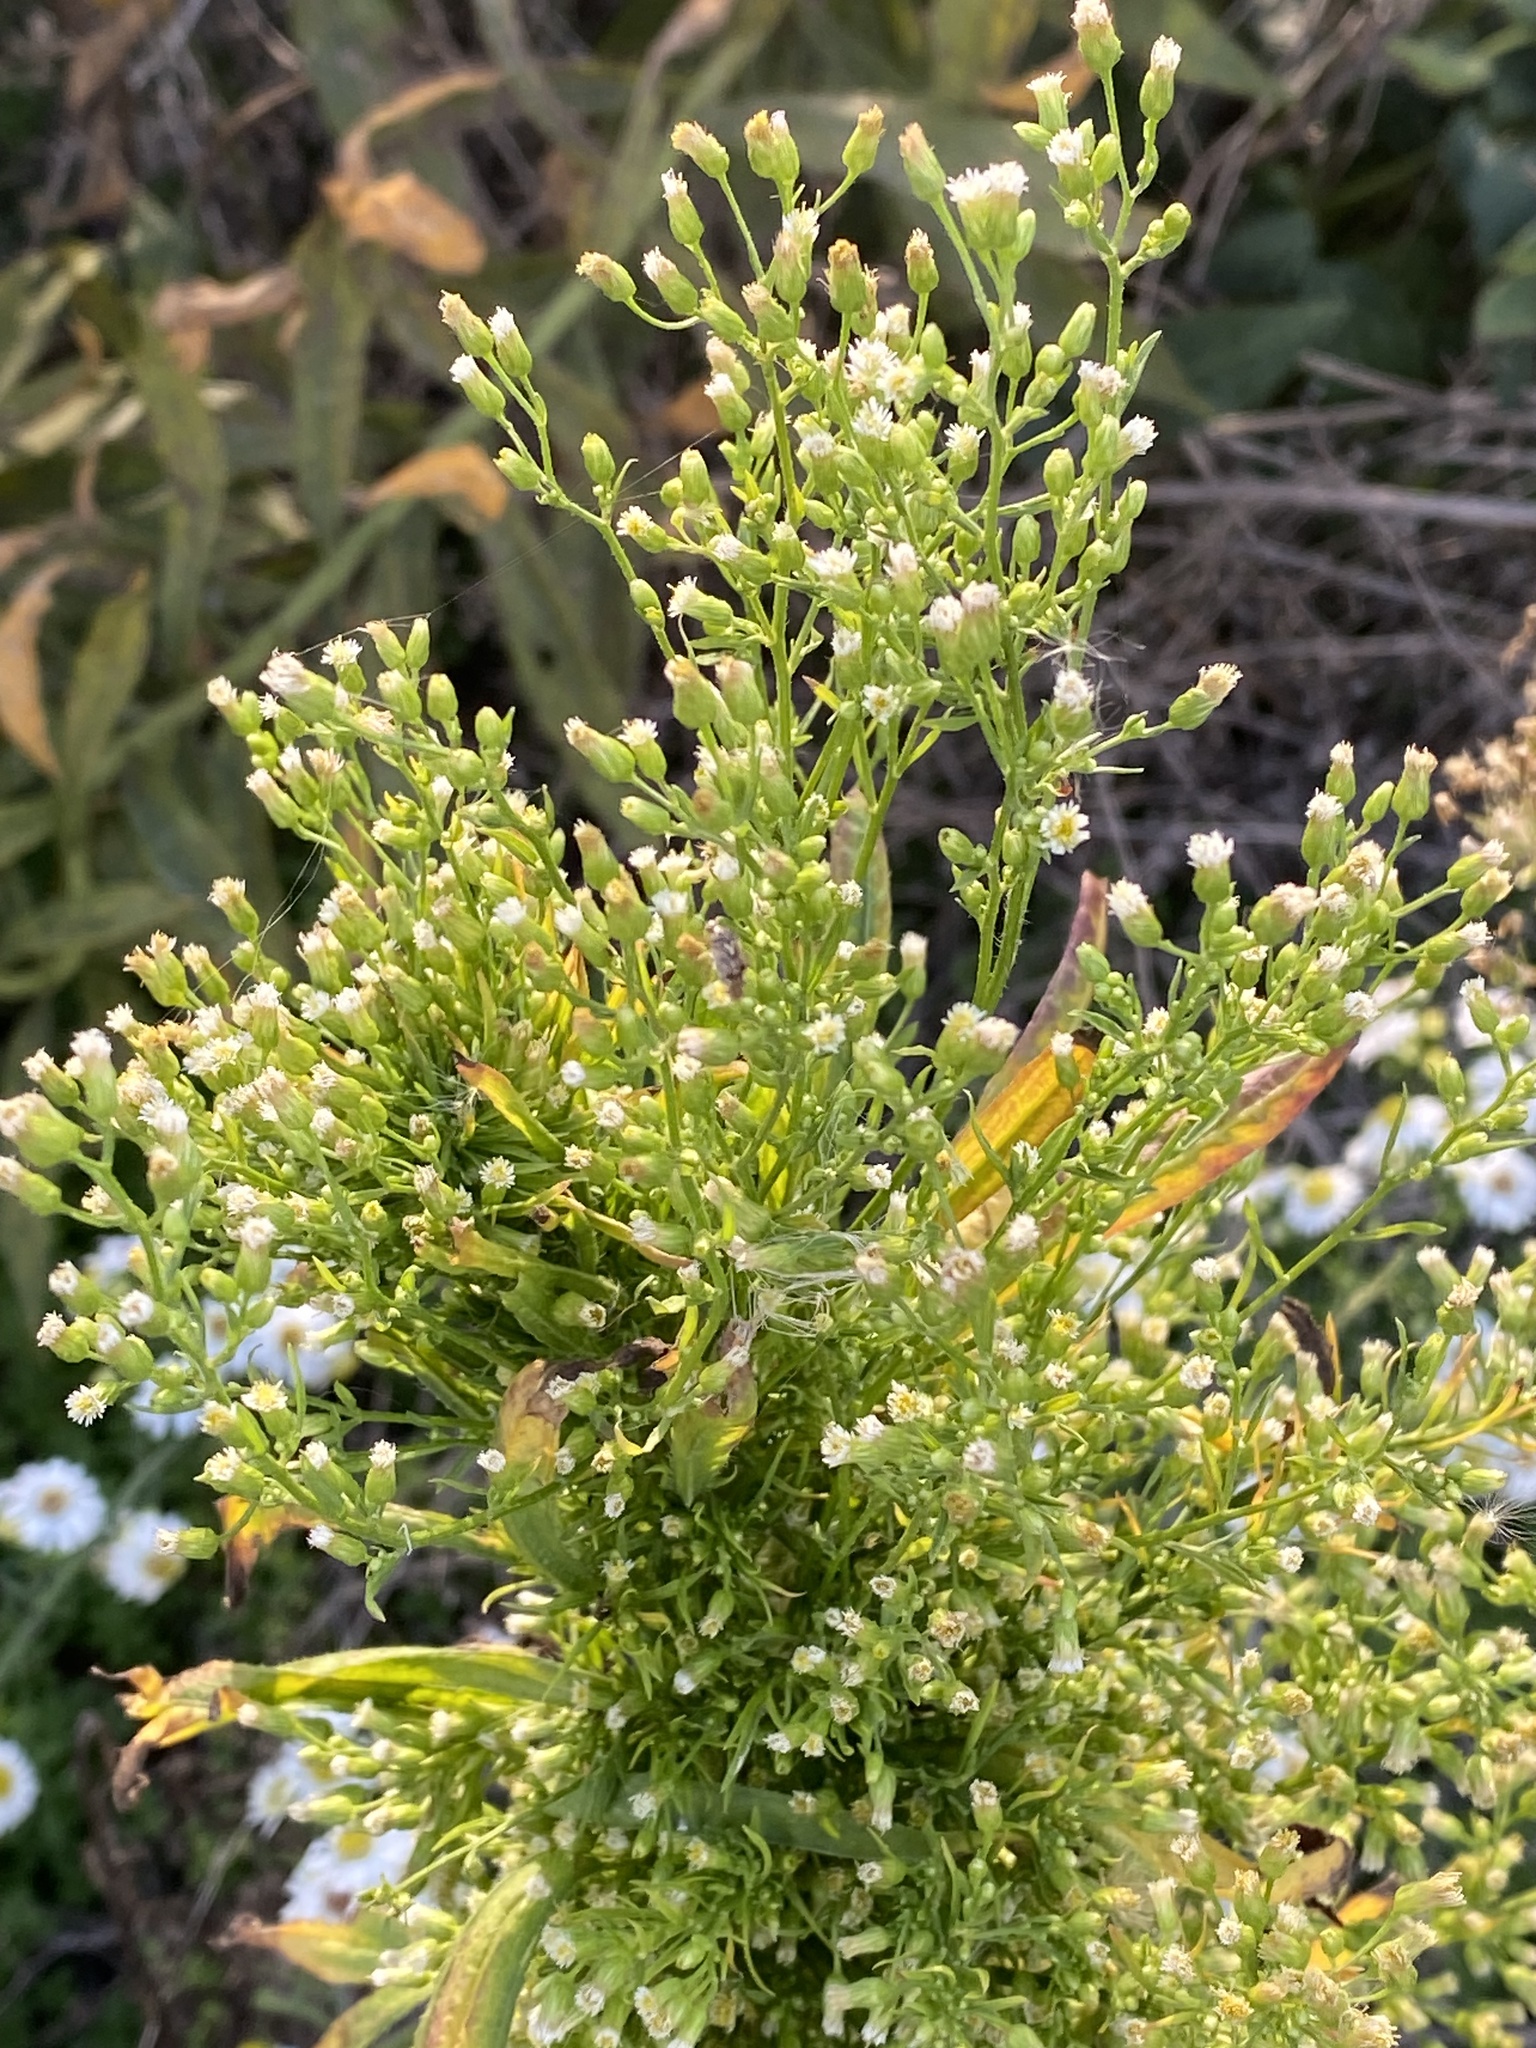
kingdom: Plantae
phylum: Tracheophyta
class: Magnoliopsida
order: Asterales
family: Asteraceae
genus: Erigeron
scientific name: Erigeron canadensis
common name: Canadian fleabane
